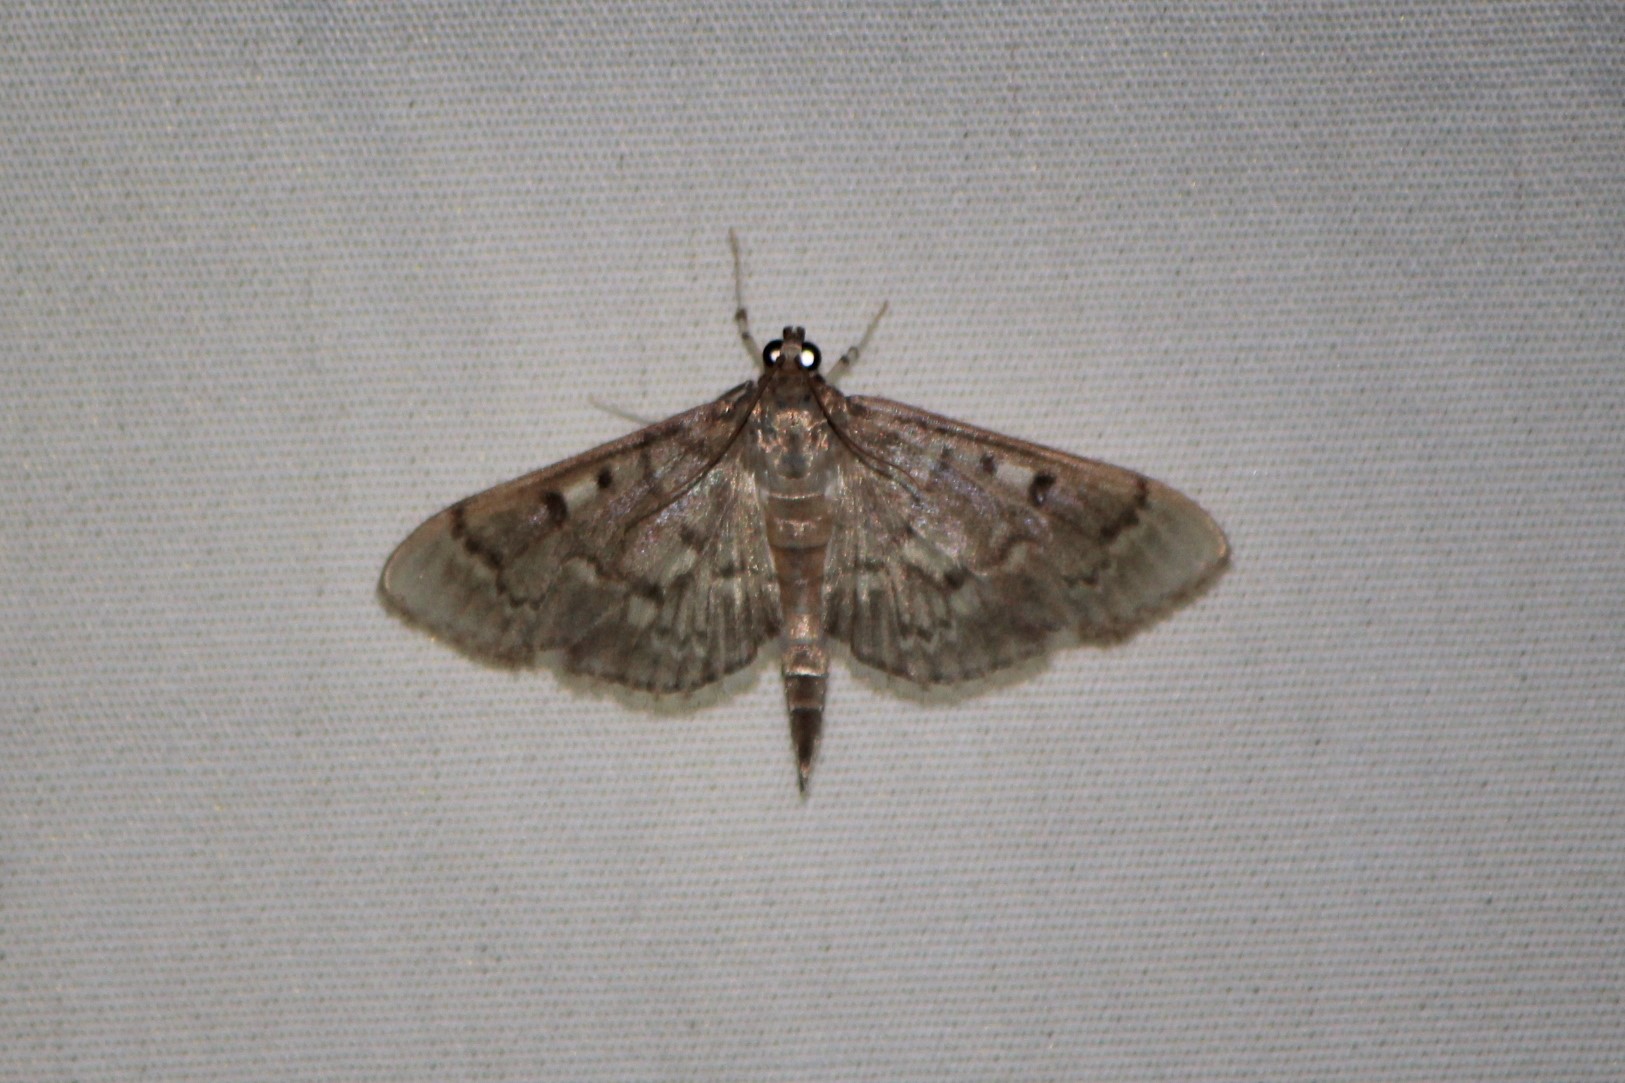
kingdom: Animalia
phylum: Arthropoda
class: Insecta
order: Lepidoptera
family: Crambidae
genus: Herpetogramma
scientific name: Herpetogramma aeglealis
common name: Serpentine webworm moth
